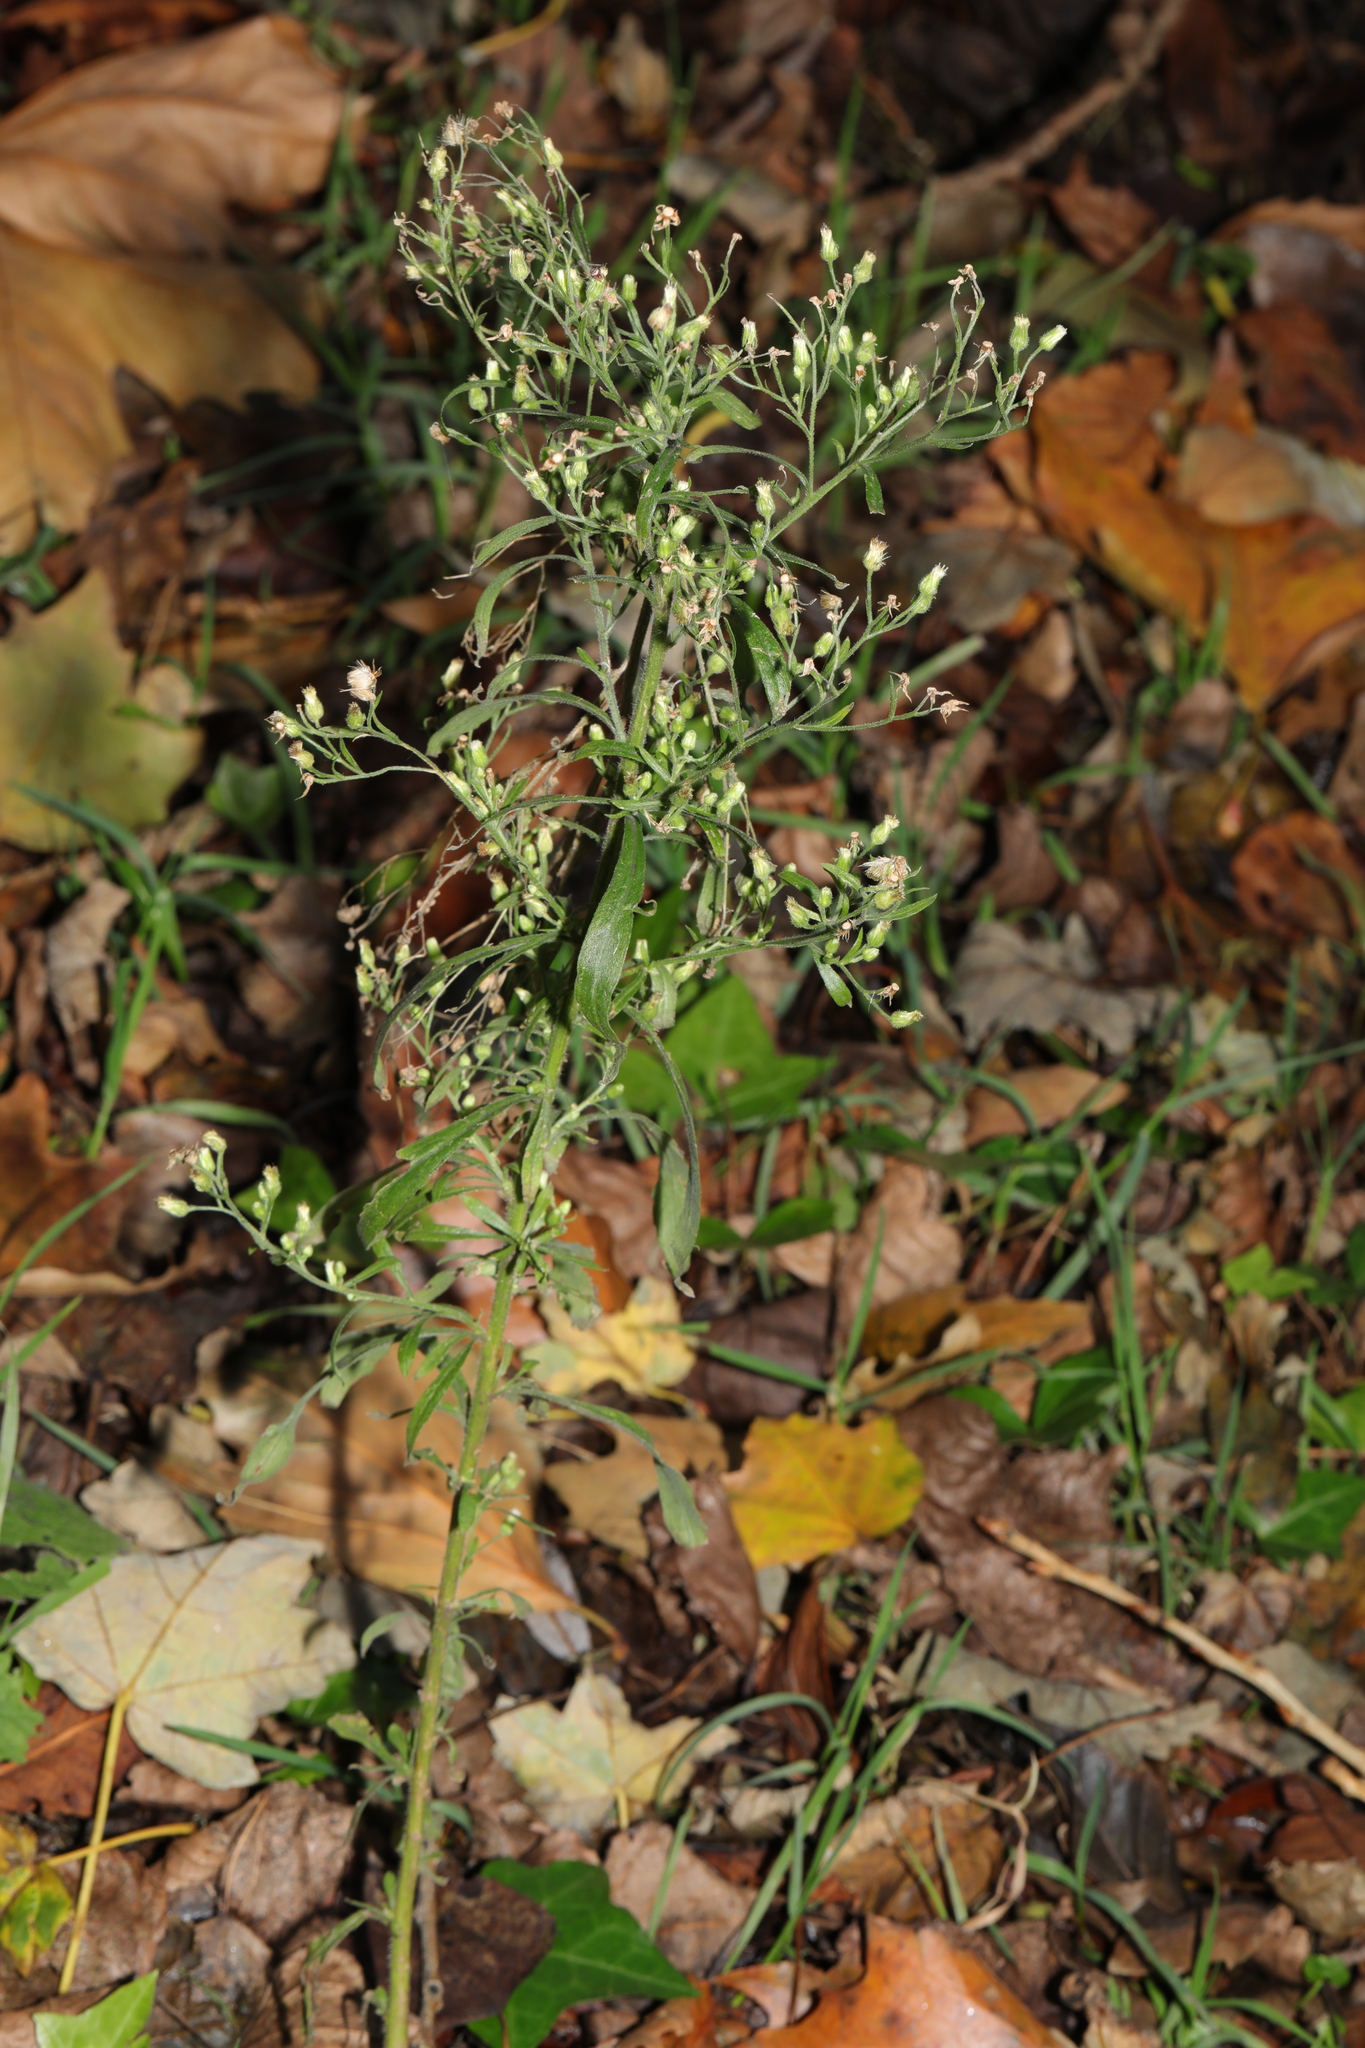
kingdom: Plantae
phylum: Tracheophyta
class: Magnoliopsida
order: Asterales
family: Asteraceae
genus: Erigeron
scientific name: Erigeron sumatrensis
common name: Daisy
